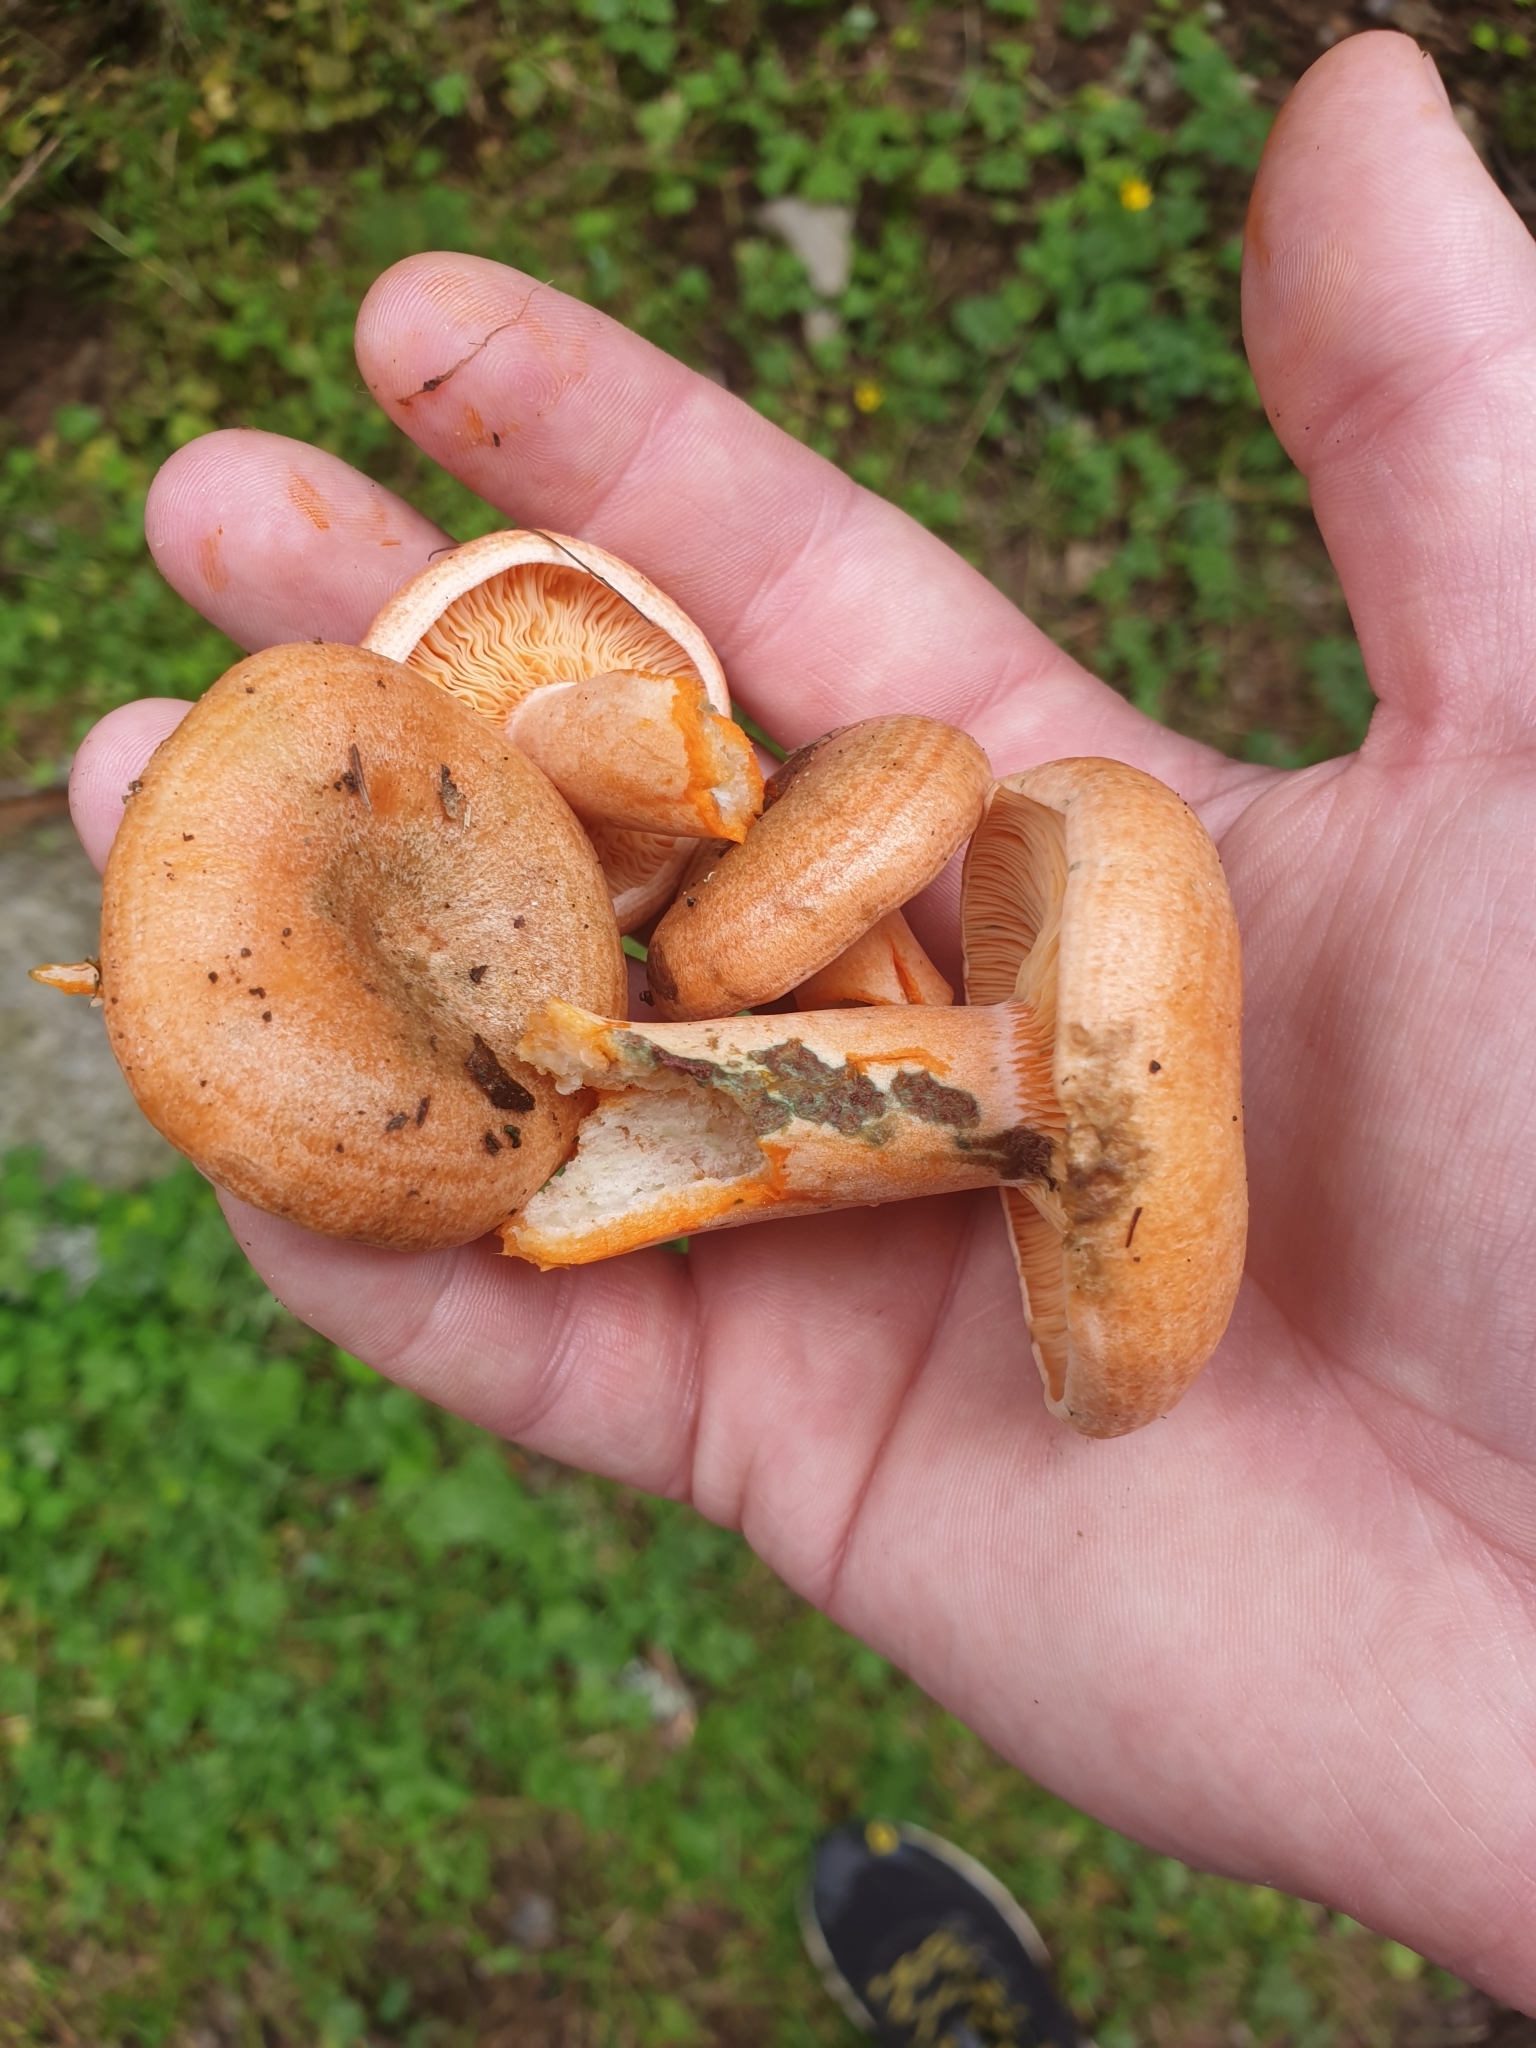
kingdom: Fungi
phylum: Basidiomycota
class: Agaricomycetes
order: Russulales
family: Russulaceae
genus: Lactarius
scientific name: Lactarius deliciosus
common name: Saffron milk-cap
